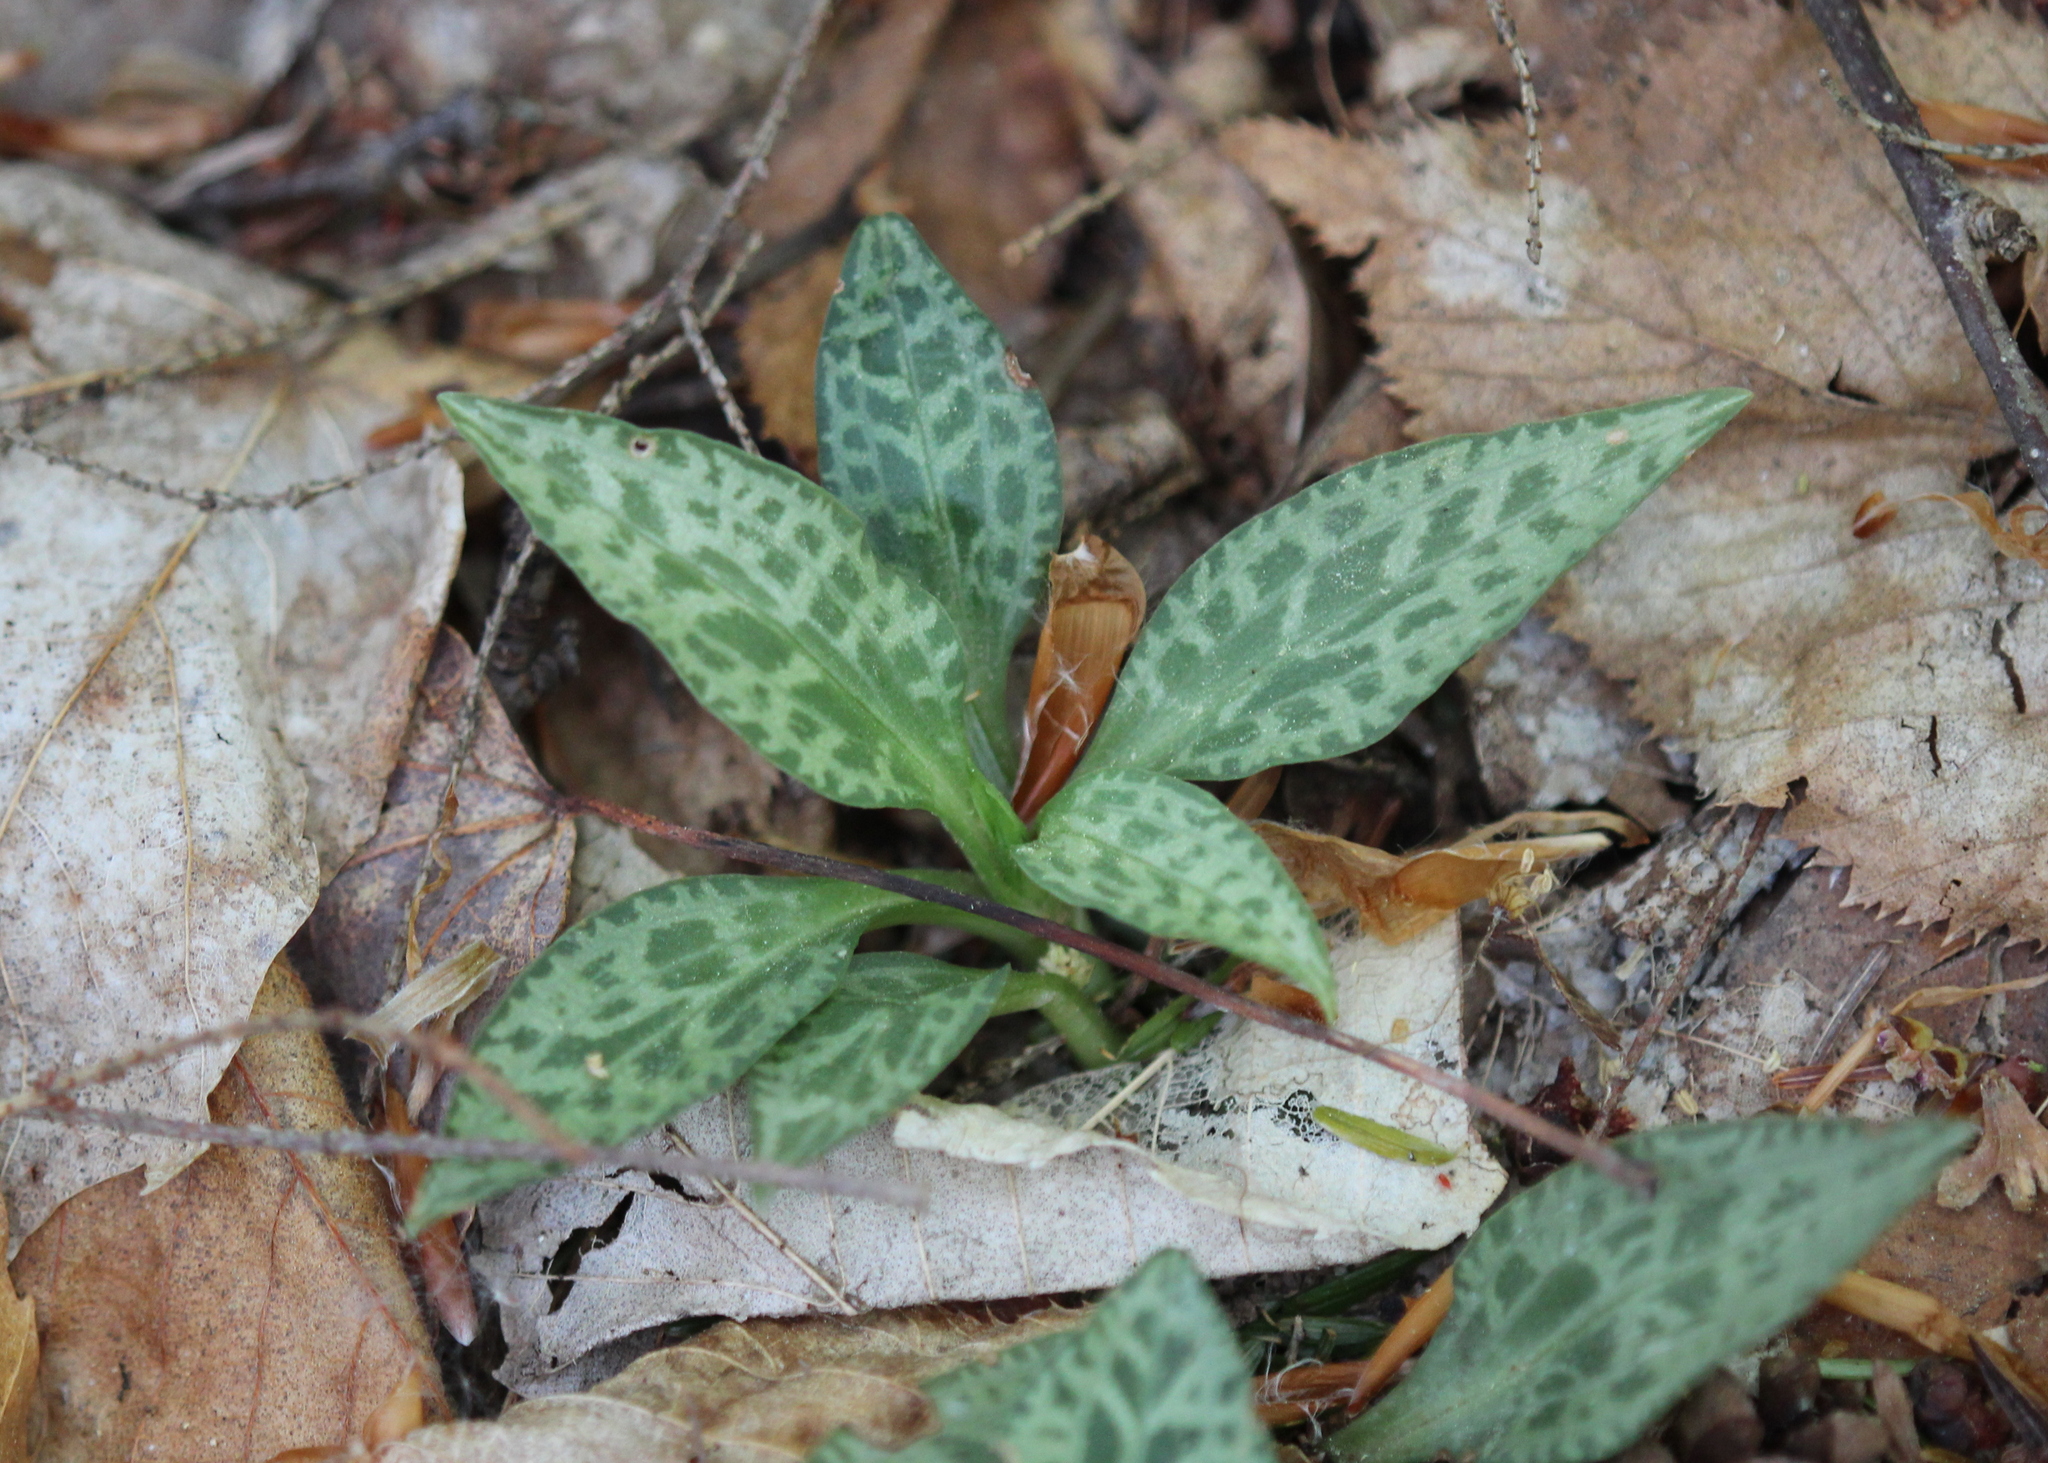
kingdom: Plantae
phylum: Tracheophyta
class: Liliopsida
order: Asparagales
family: Orchidaceae
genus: Goodyera
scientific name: Goodyera tesselata
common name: Checkered rattlesnake-plantain
